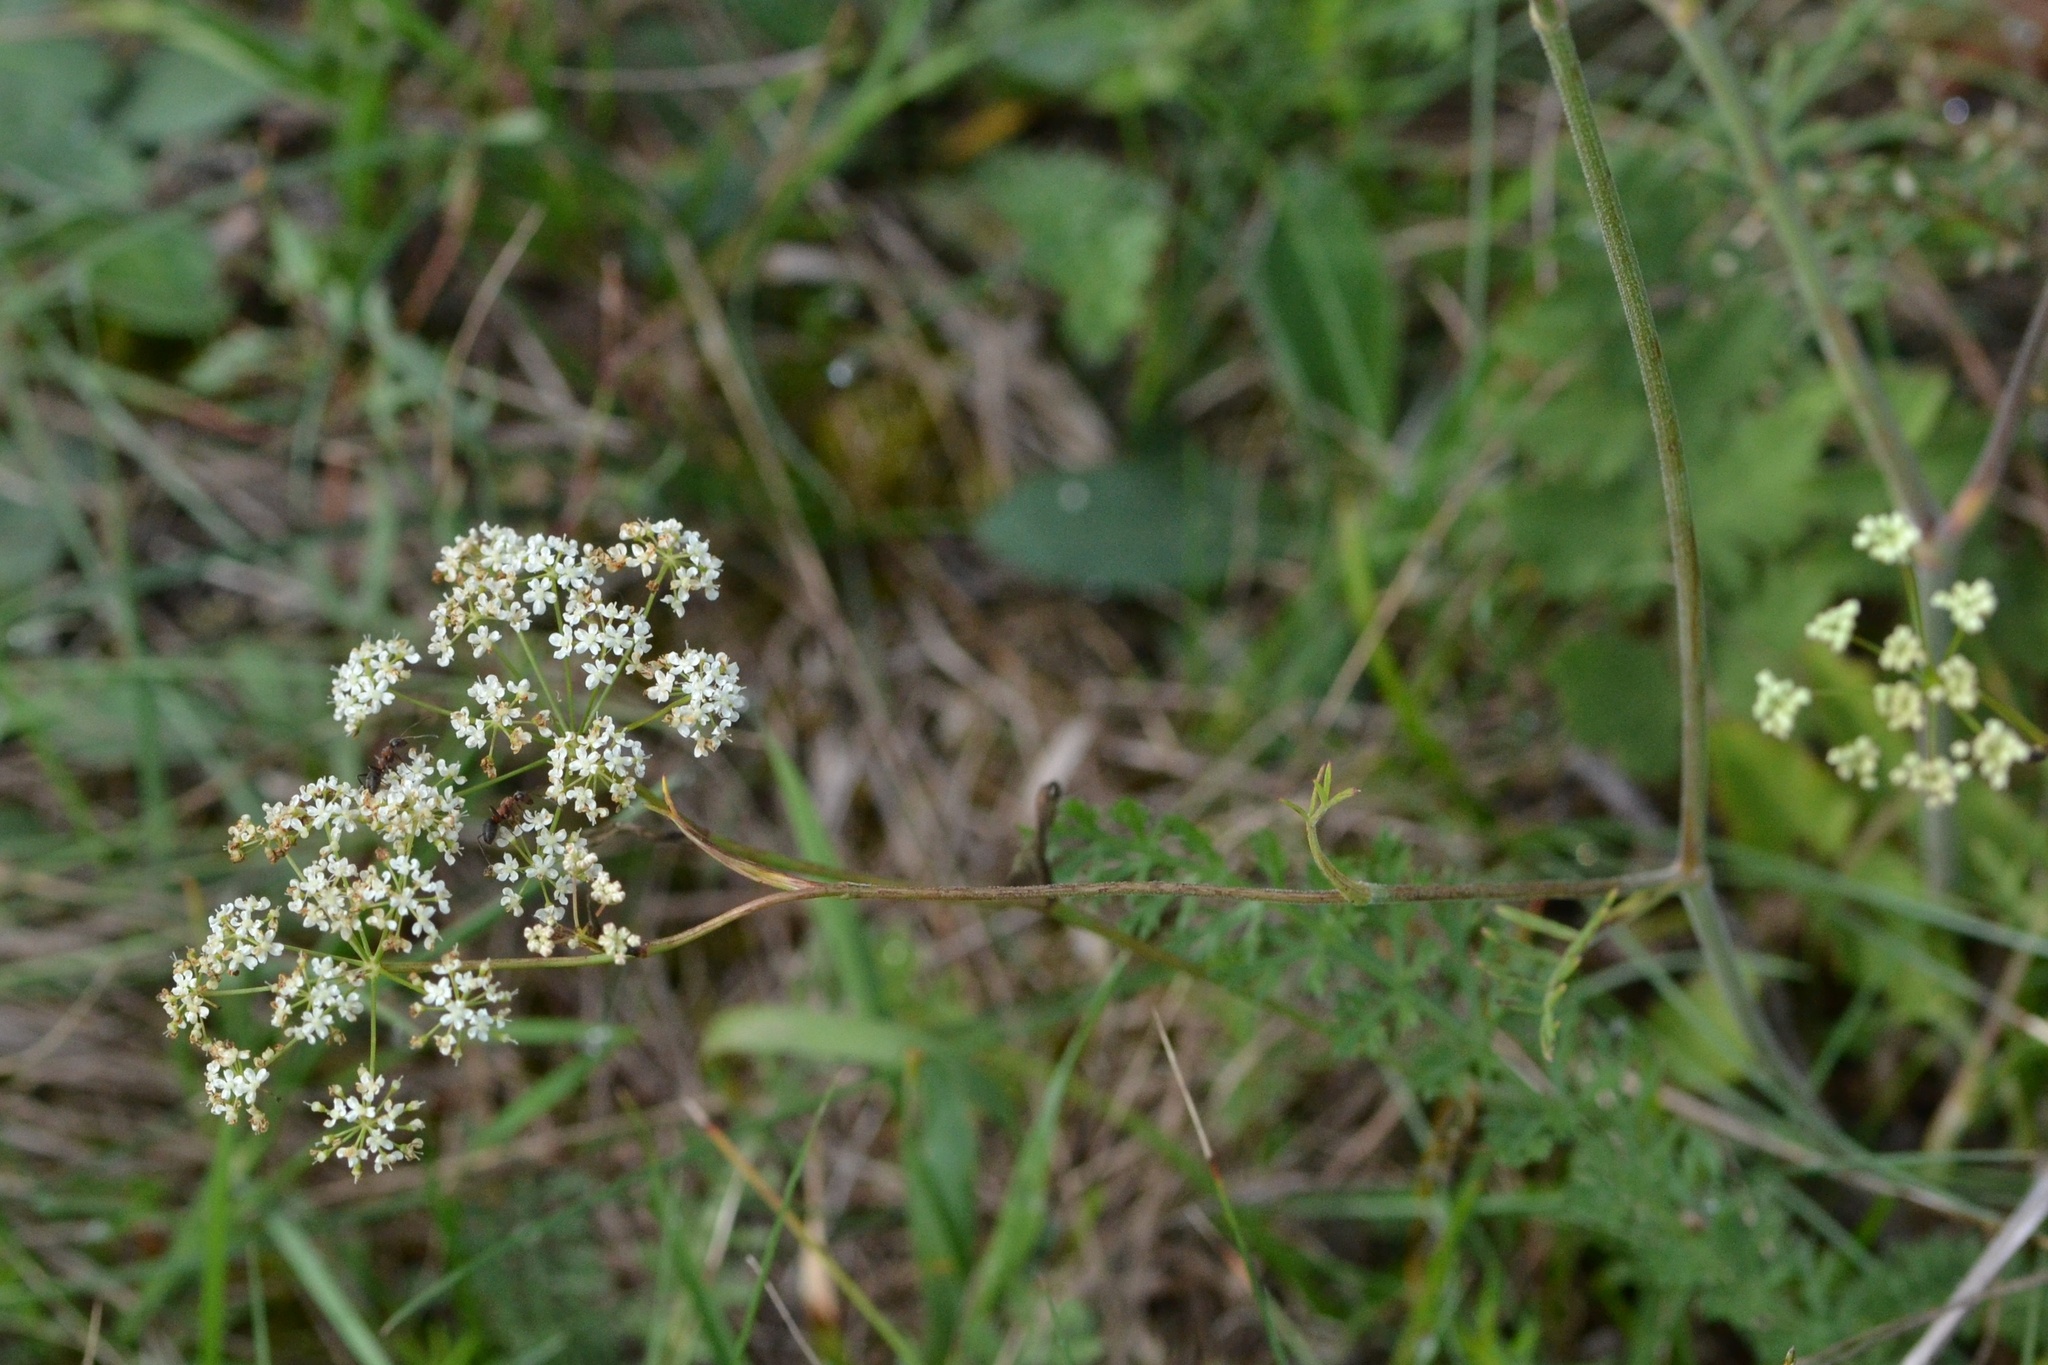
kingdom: Plantae
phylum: Tracheophyta
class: Magnoliopsida
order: Apiales
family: Apiaceae
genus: Pimpinella
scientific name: Pimpinella saxifraga
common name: Burnet-saxifrage
